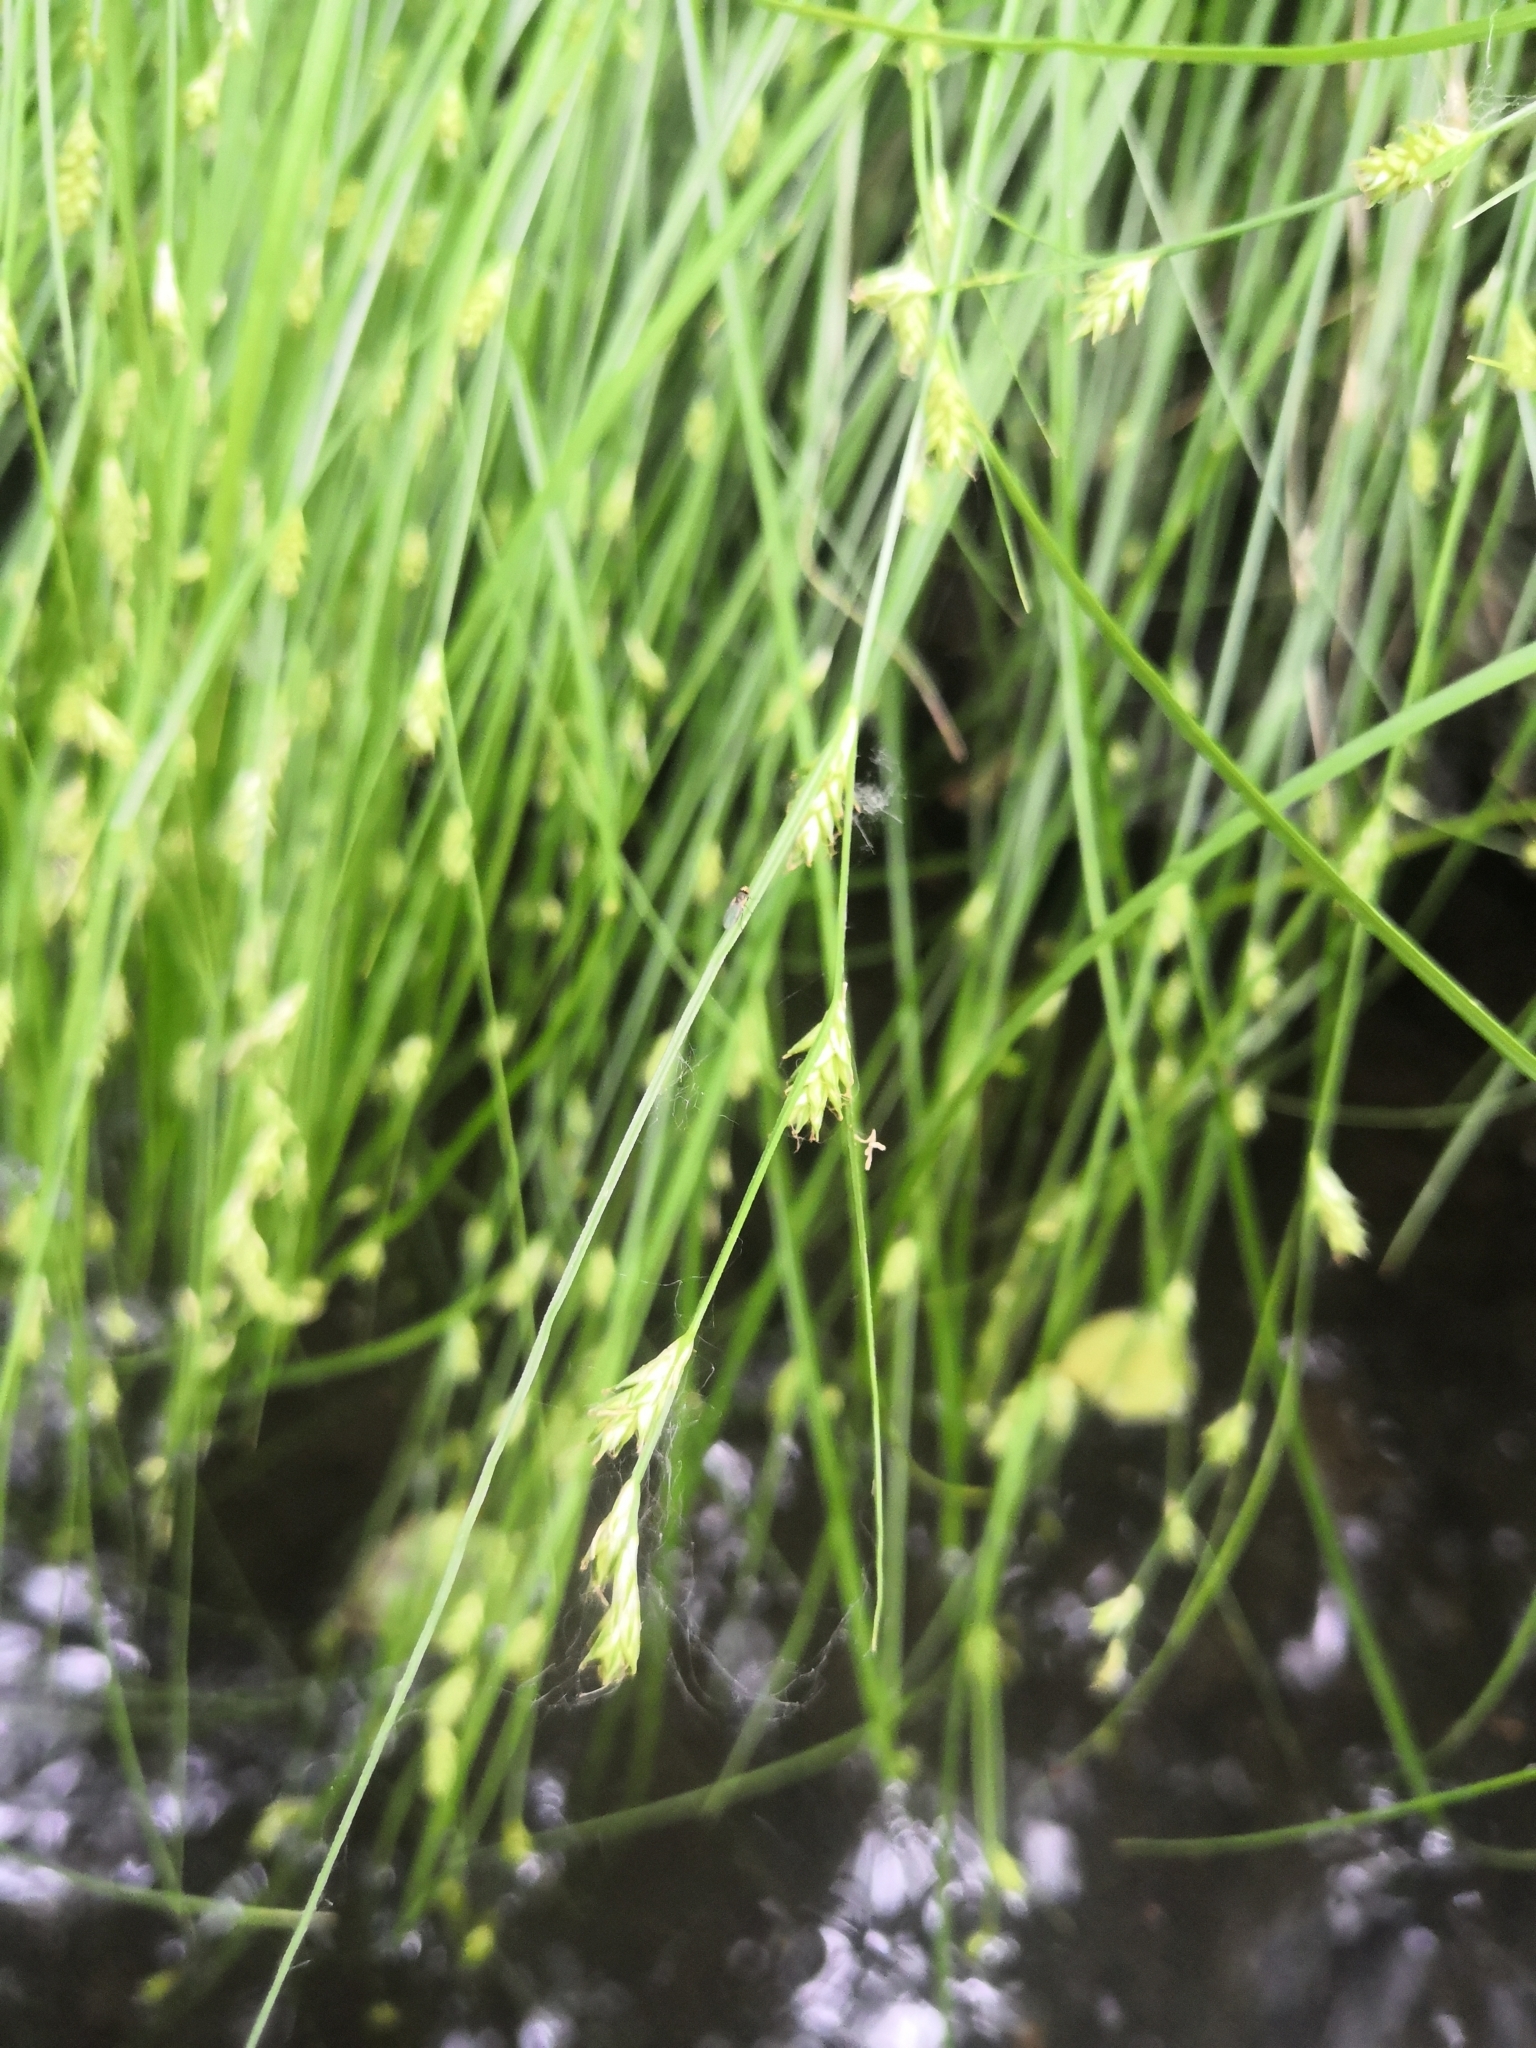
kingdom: Plantae
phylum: Tracheophyta
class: Liliopsida
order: Poales
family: Cyperaceae
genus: Carex
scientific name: Carex remota
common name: Remote sedge
